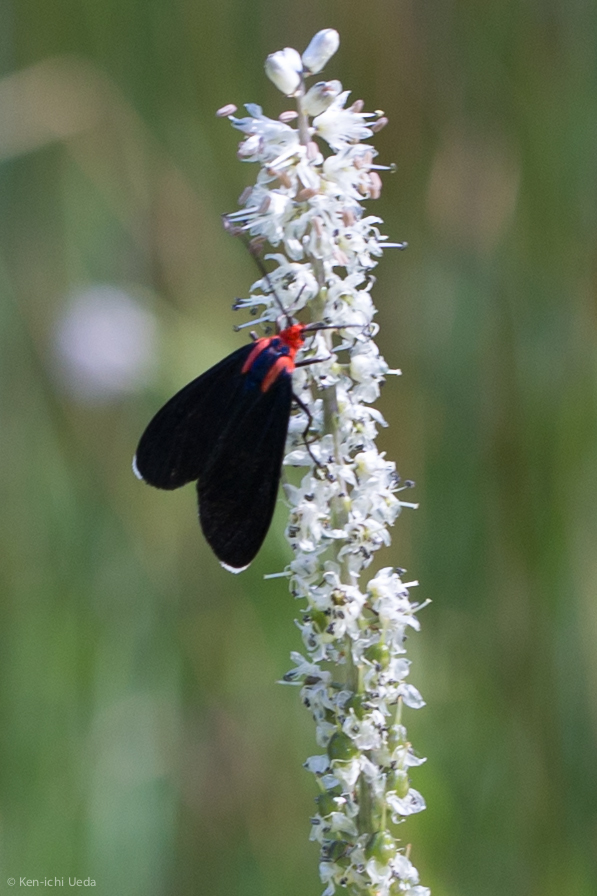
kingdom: Animalia
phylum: Arthropoda
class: Insecta
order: Lepidoptera
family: Erebidae
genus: Ctenucha
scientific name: Ctenucha rubroscapus
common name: Red-shouldered ctenucha
